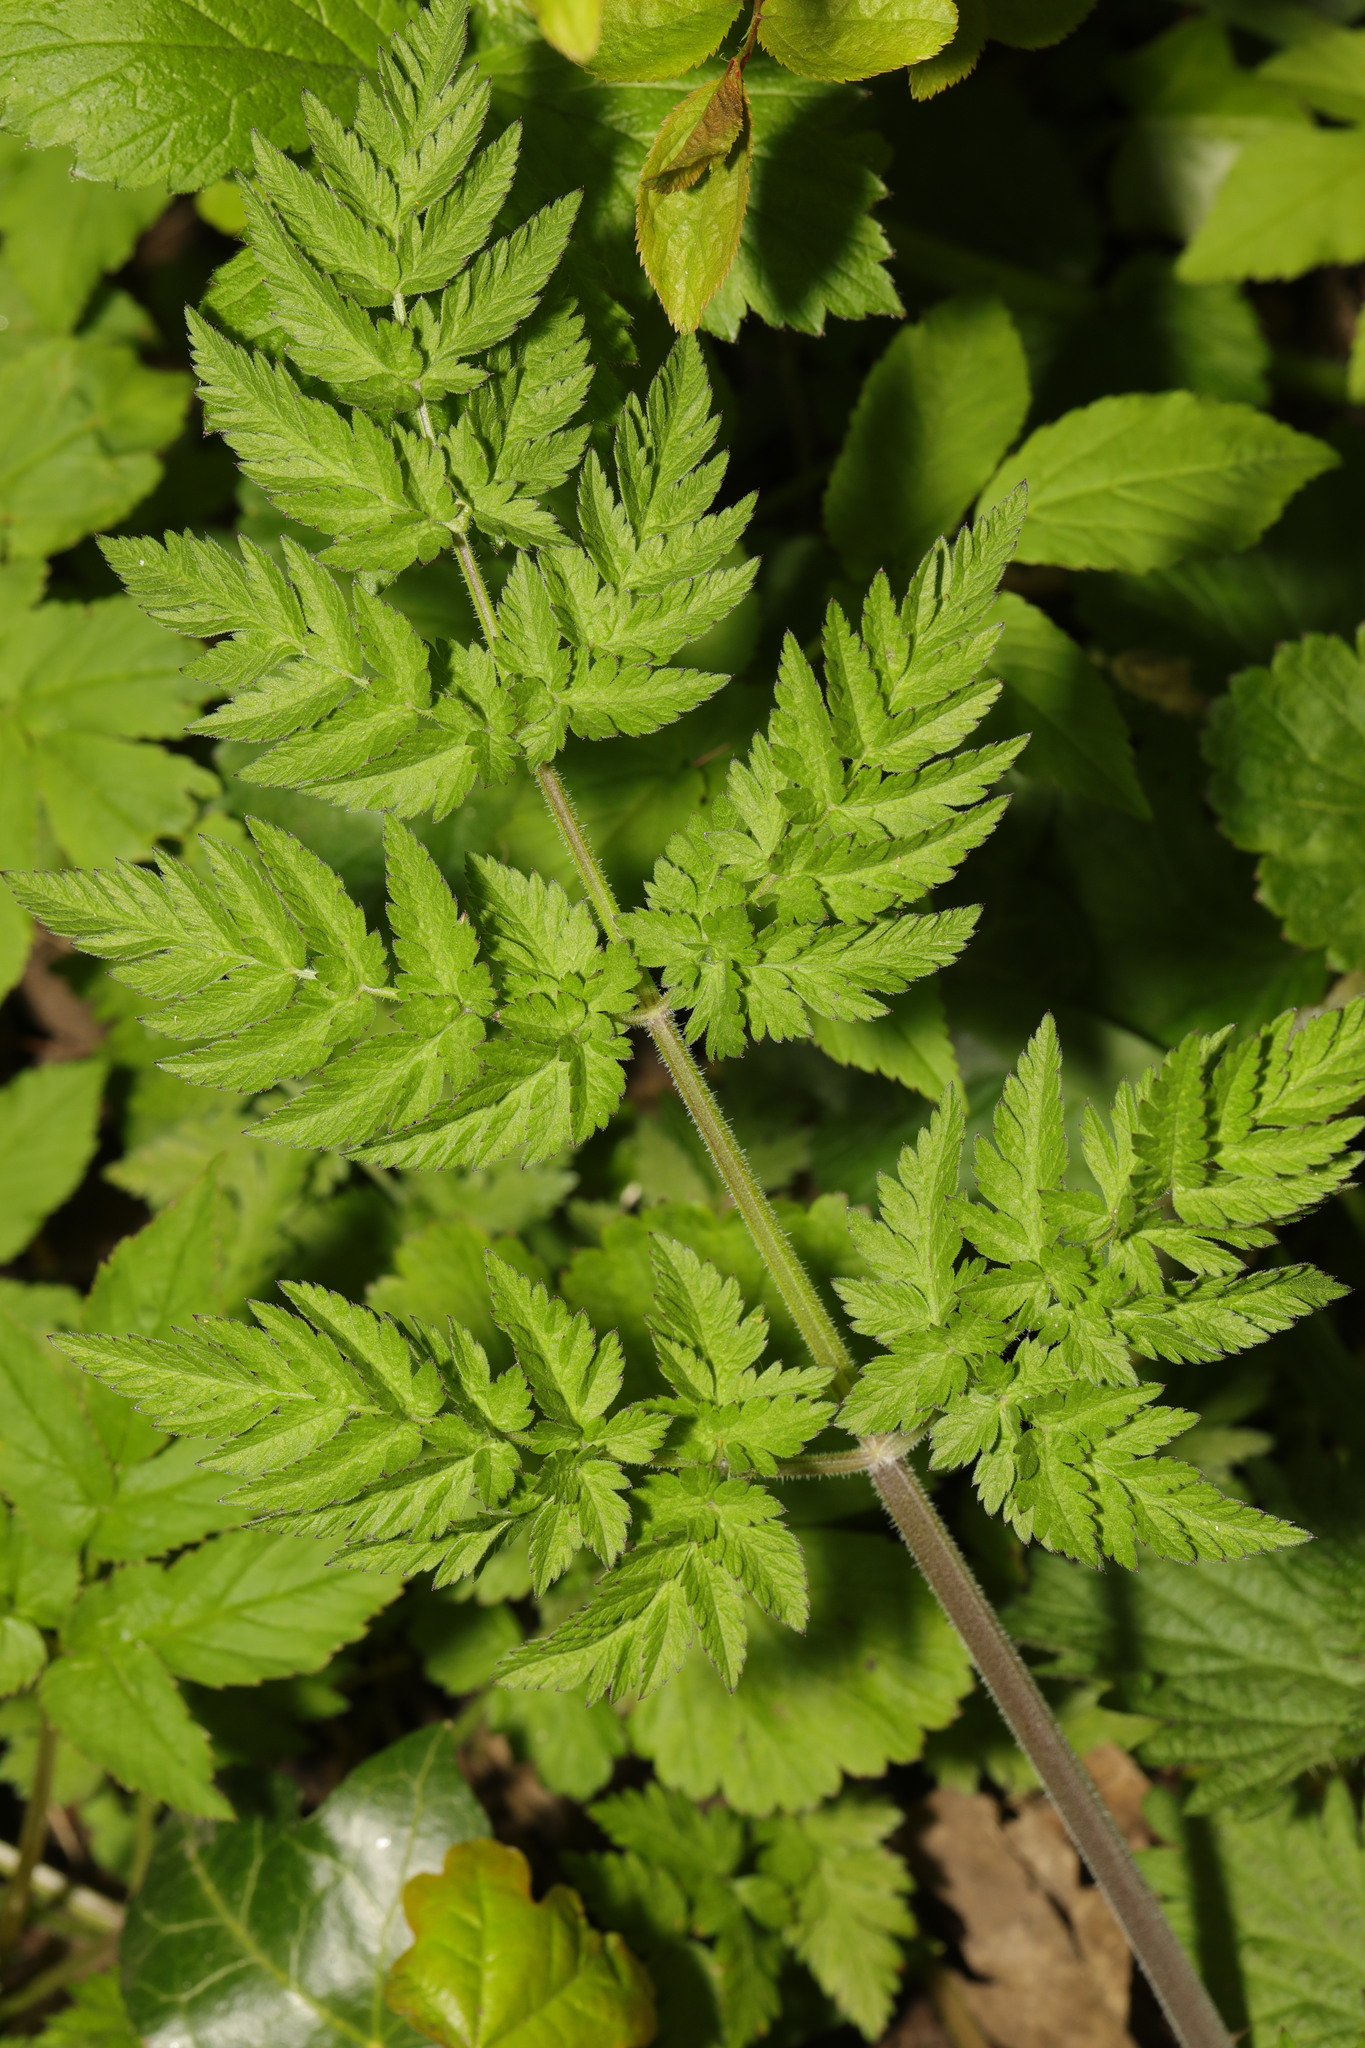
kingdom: Plantae
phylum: Tracheophyta
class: Magnoliopsida
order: Apiales
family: Apiaceae
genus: Anthriscus
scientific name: Anthriscus sylvestris
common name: Cow parsley
